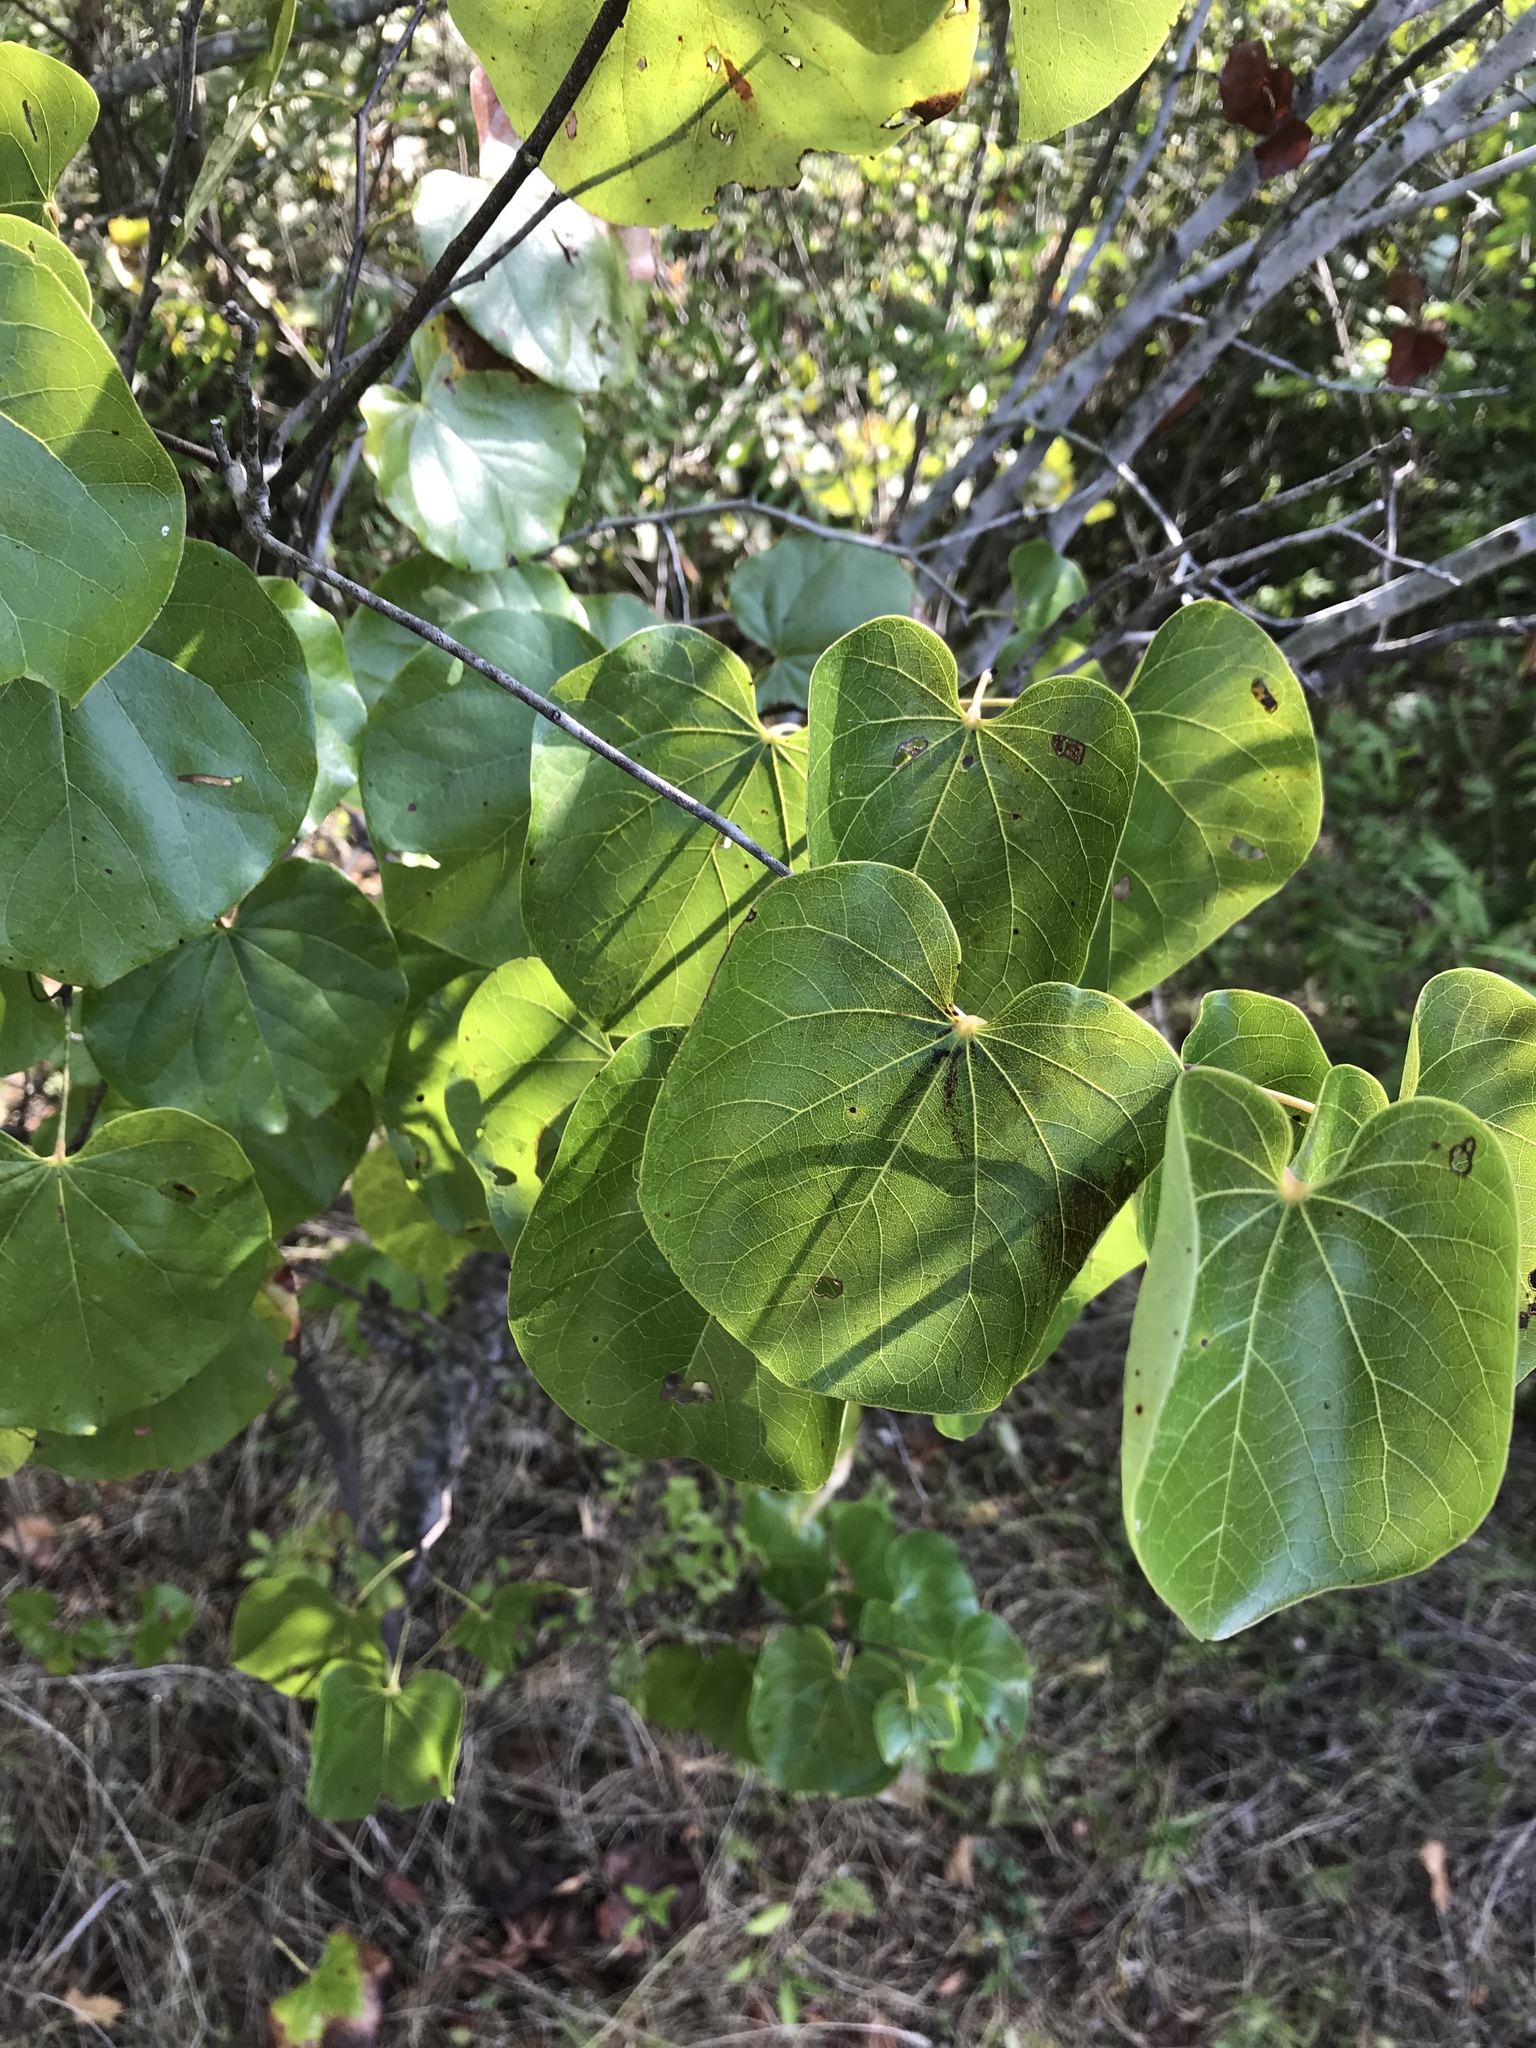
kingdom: Plantae
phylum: Tracheophyta
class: Magnoliopsida
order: Fabales
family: Fabaceae
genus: Cercis
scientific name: Cercis canadensis
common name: Eastern redbud
